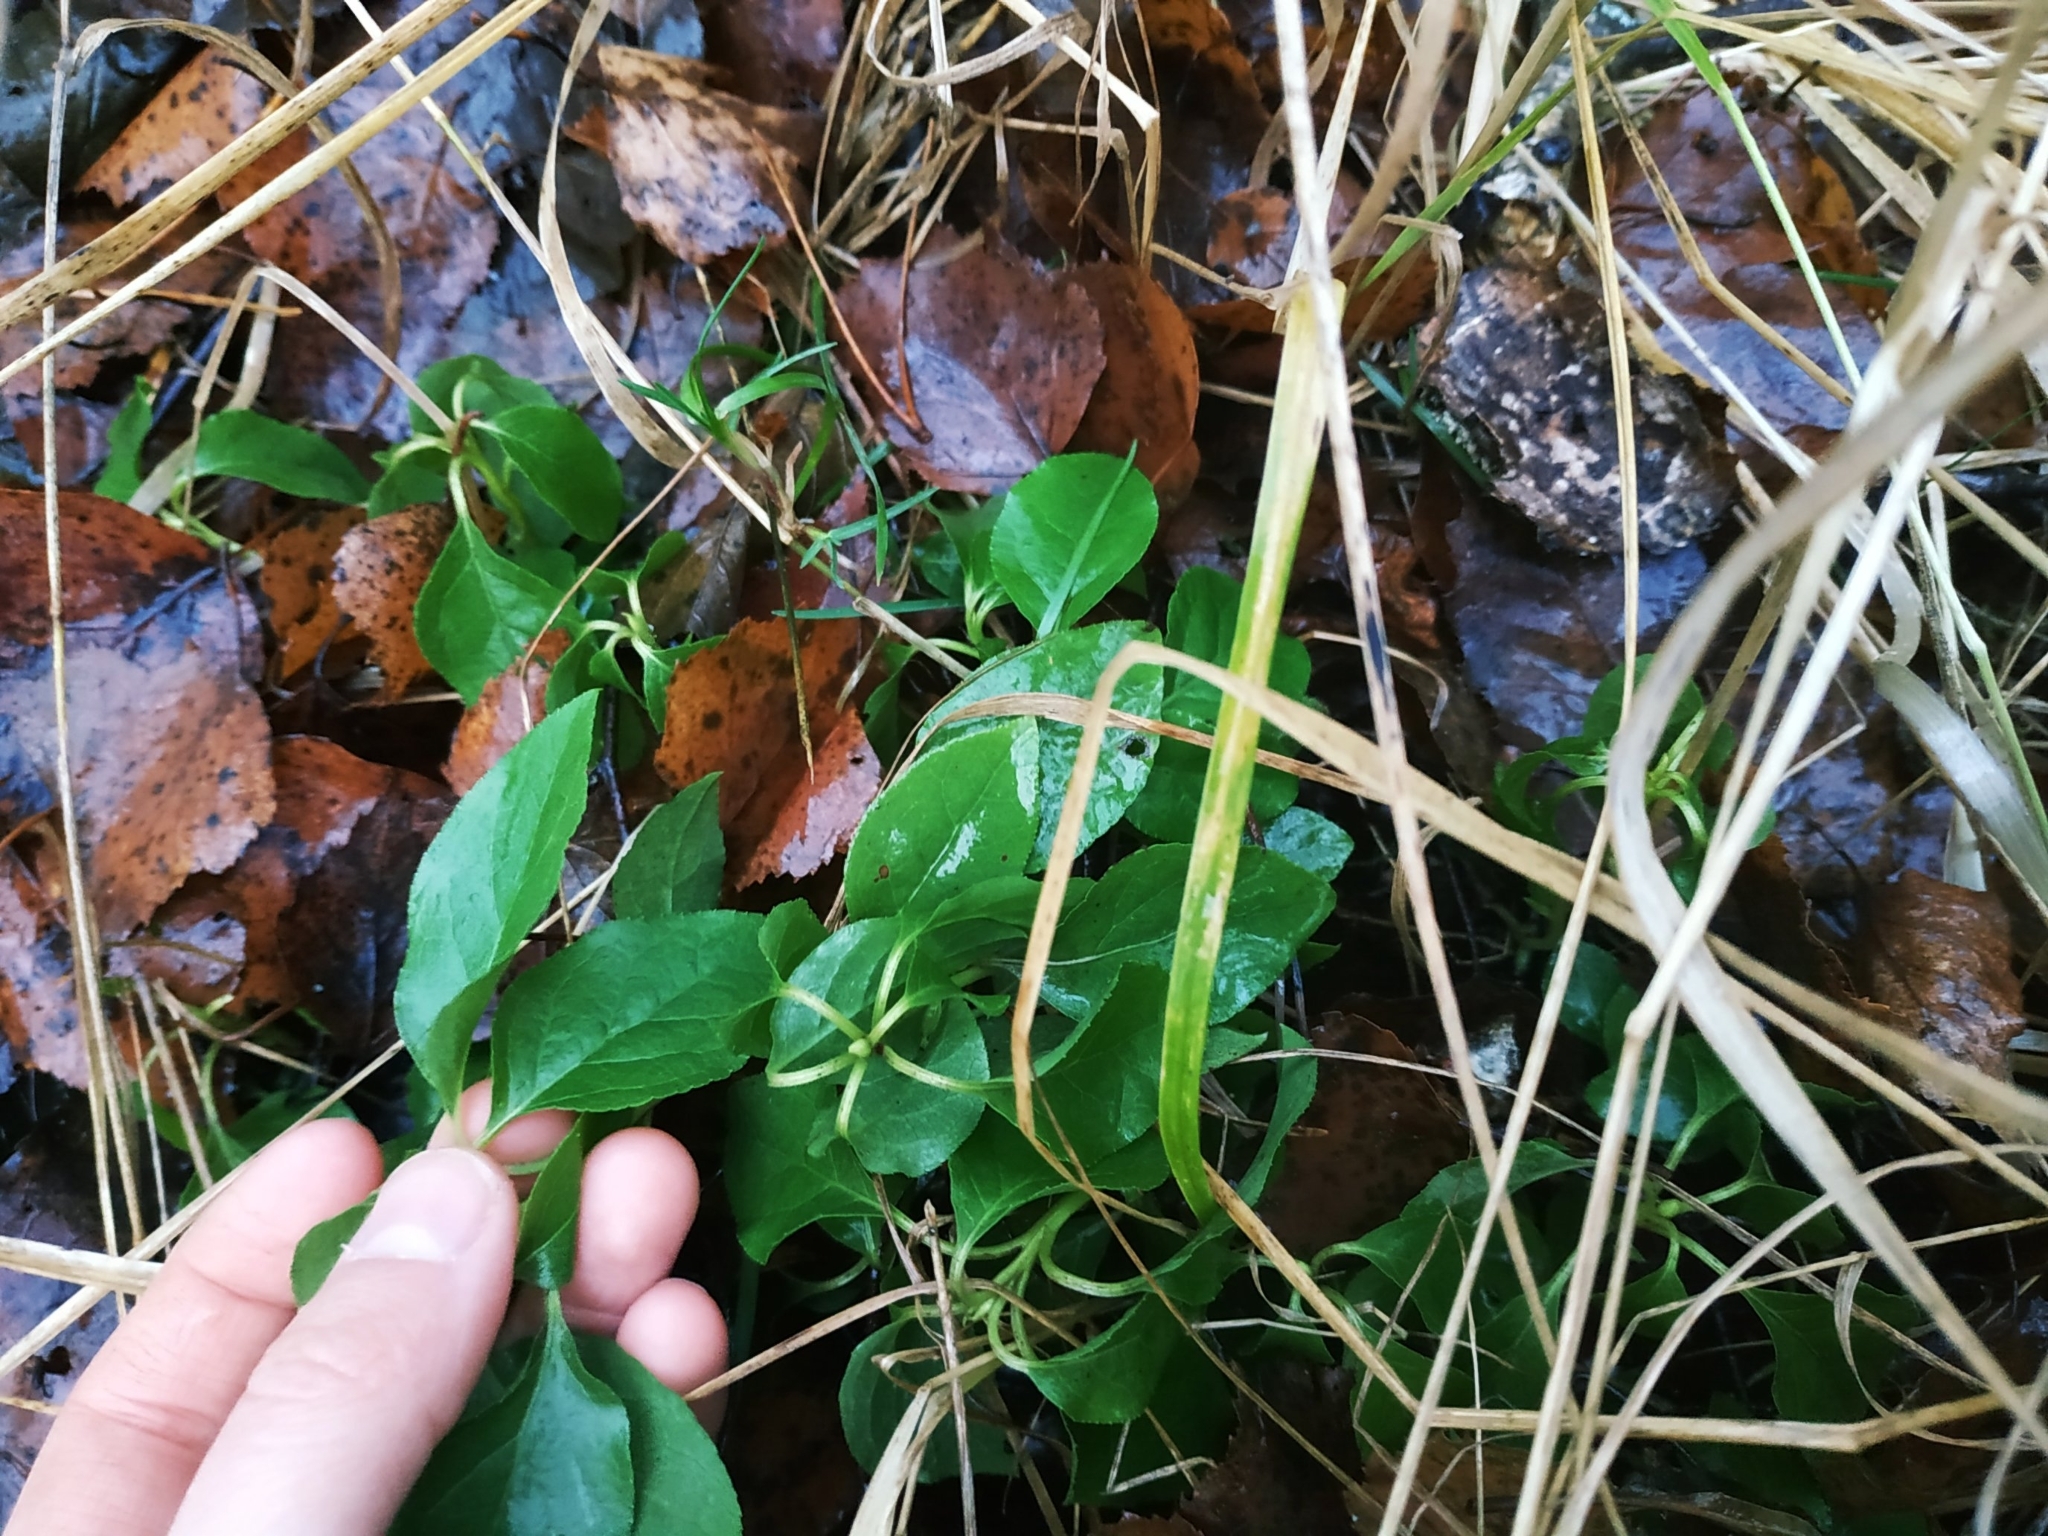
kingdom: Plantae
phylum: Tracheophyta
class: Magnoliopsida
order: Ericales
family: Ericaceae
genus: Orthilia
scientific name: Orthilia secunda
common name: One-sided orthilia
